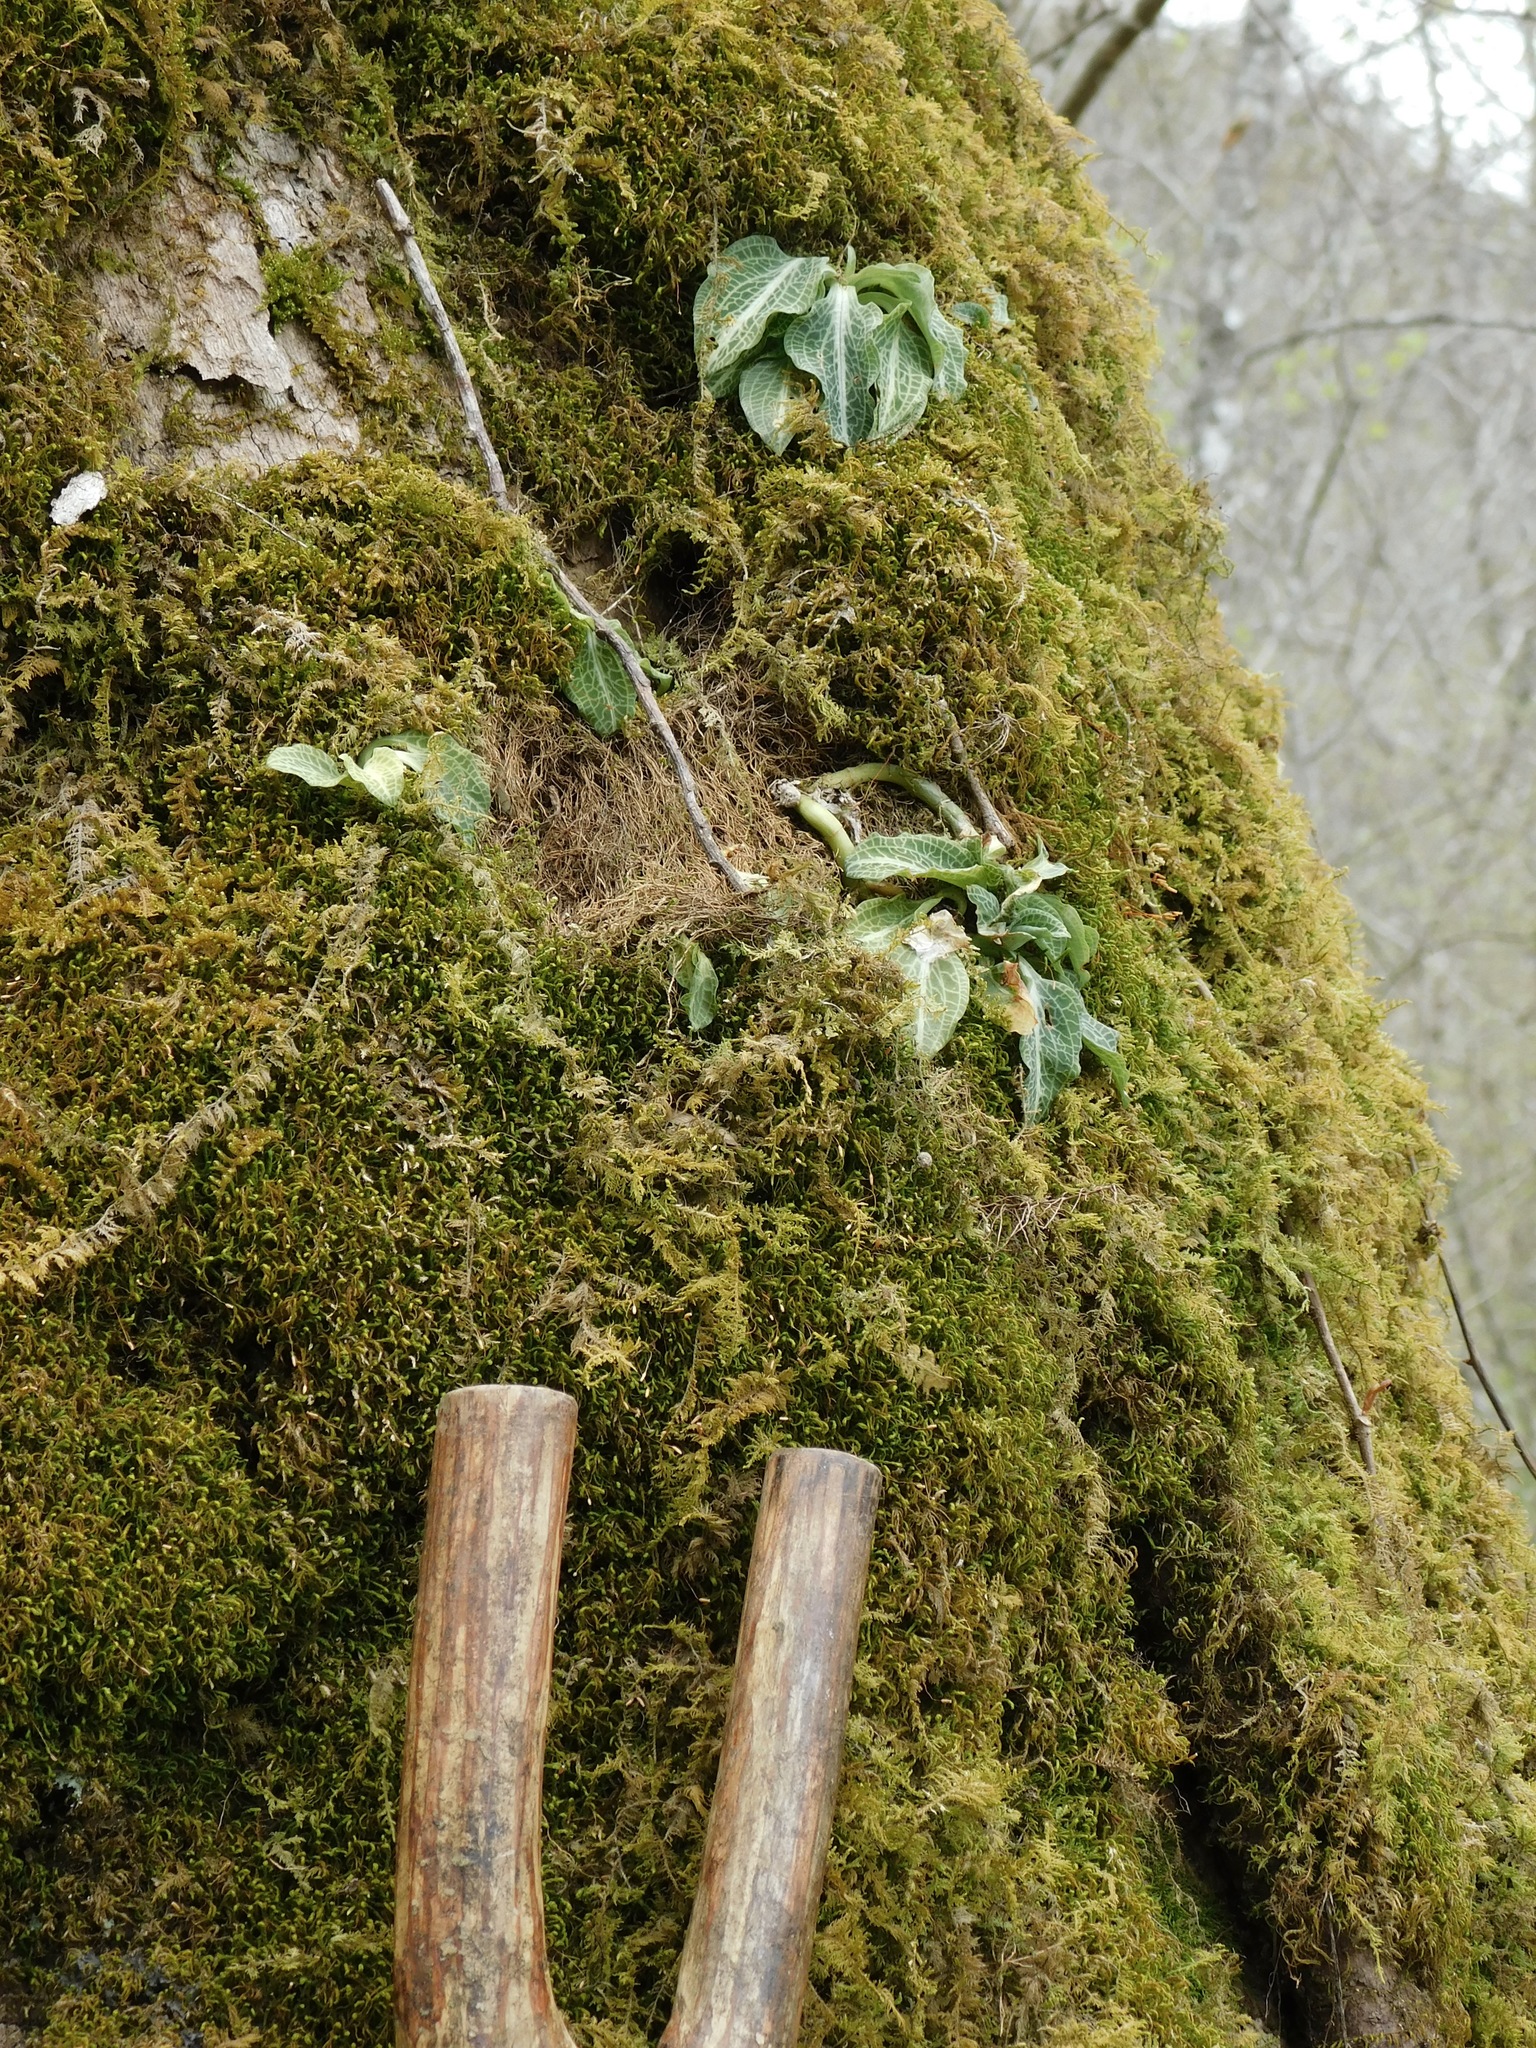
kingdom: Plantae
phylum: Tracheophyta
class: Liliopsida
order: Asparagales
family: Orchidaceae
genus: Goodyera
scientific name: Goodyera pubescens
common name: Downy rattlesnake-plantain
